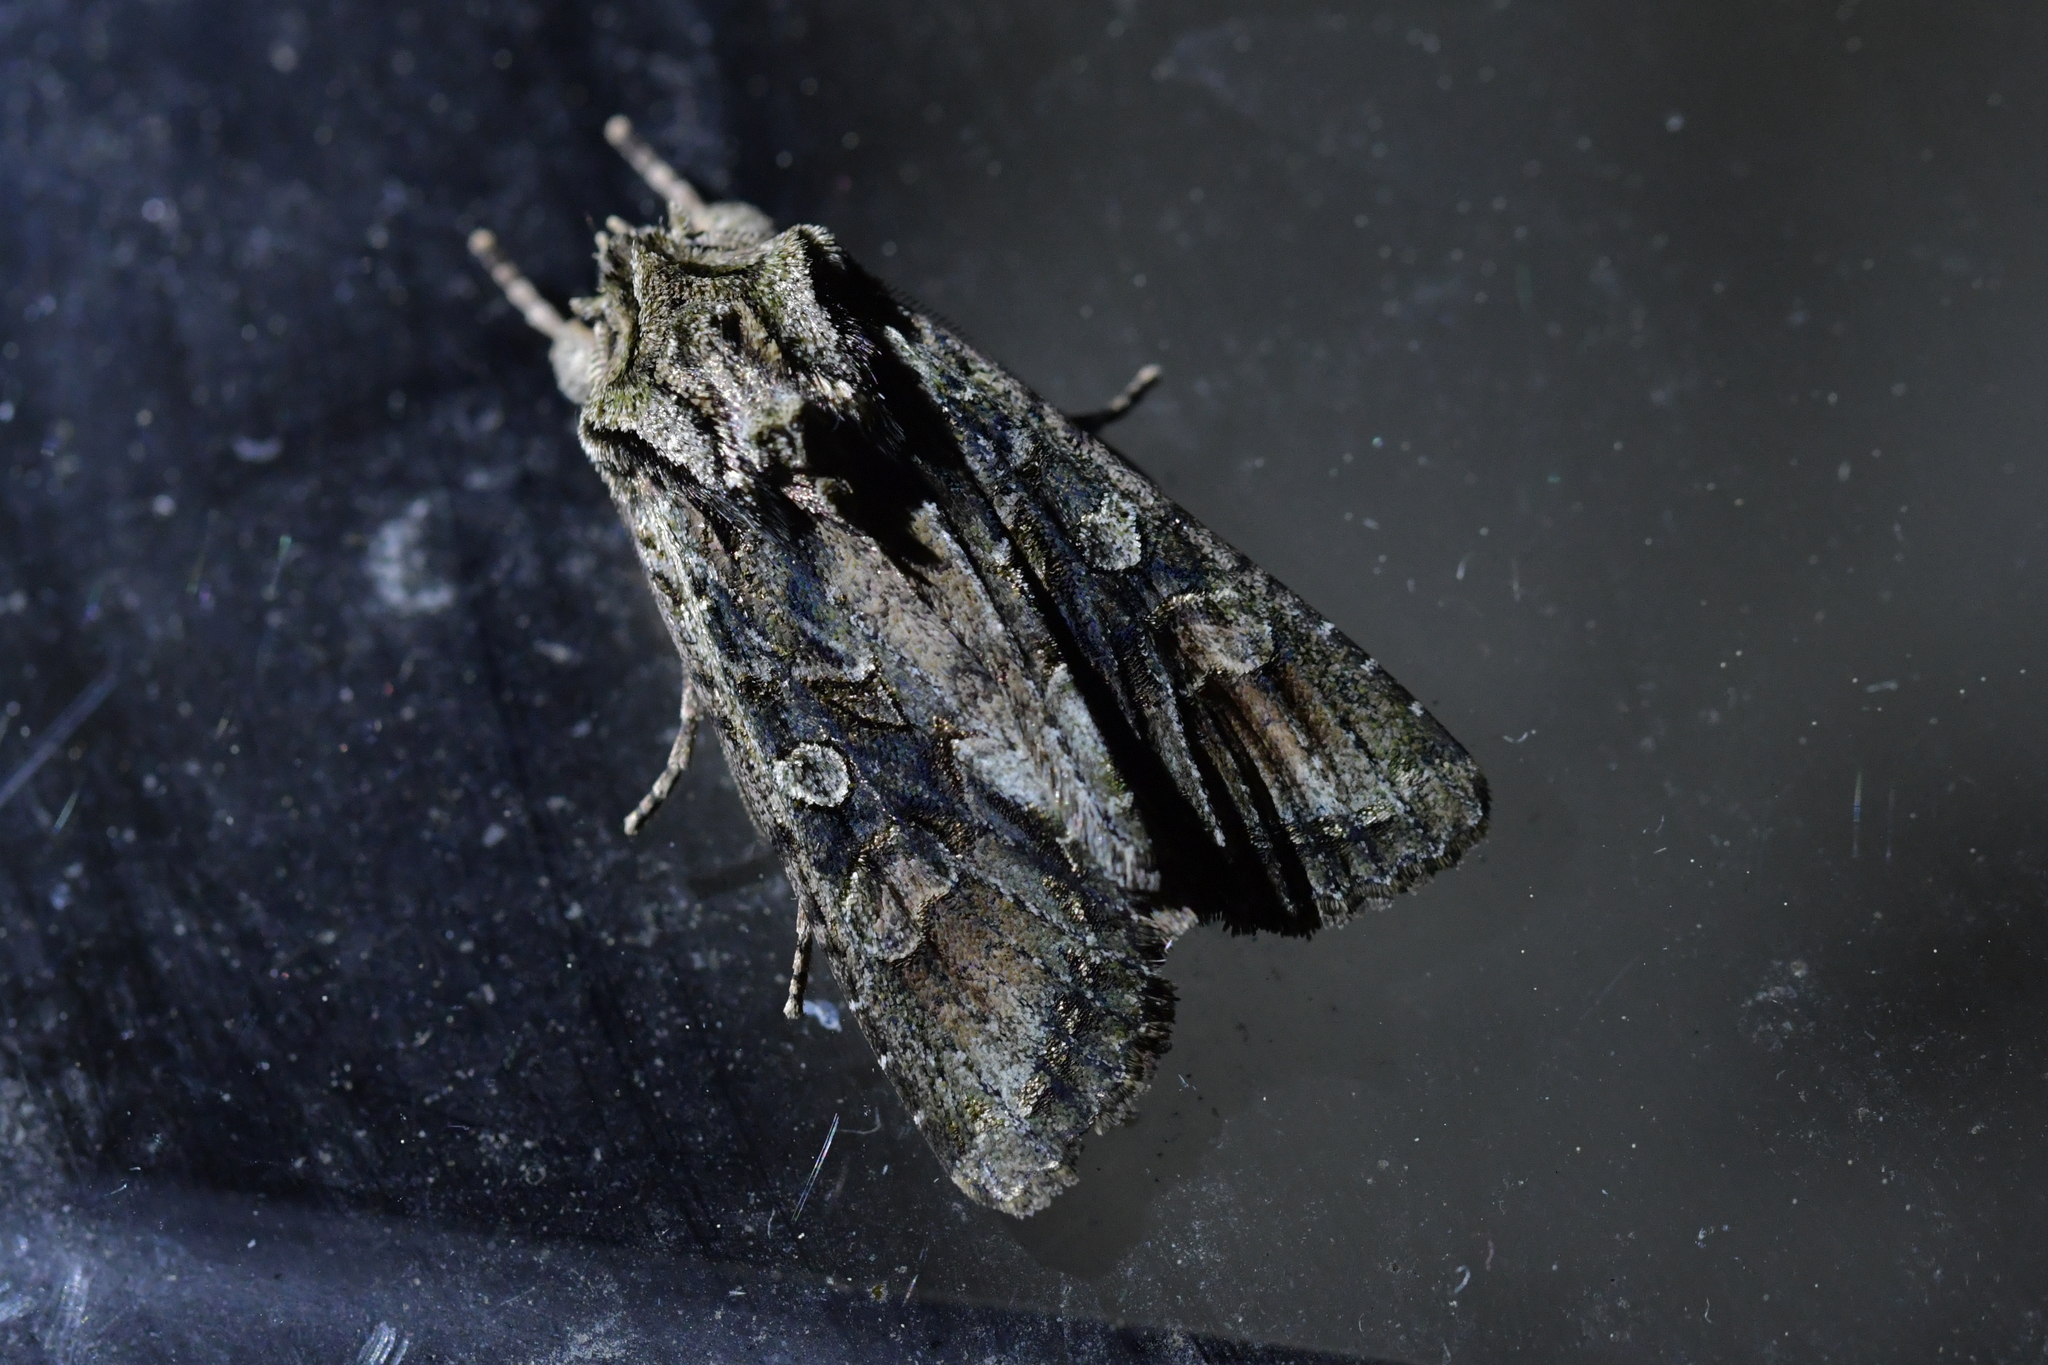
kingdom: Animalia
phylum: Arthropoda
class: Insecta
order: Lepidoptera
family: Noctuidae
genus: Ichneutica
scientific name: Ichneutica mutans
